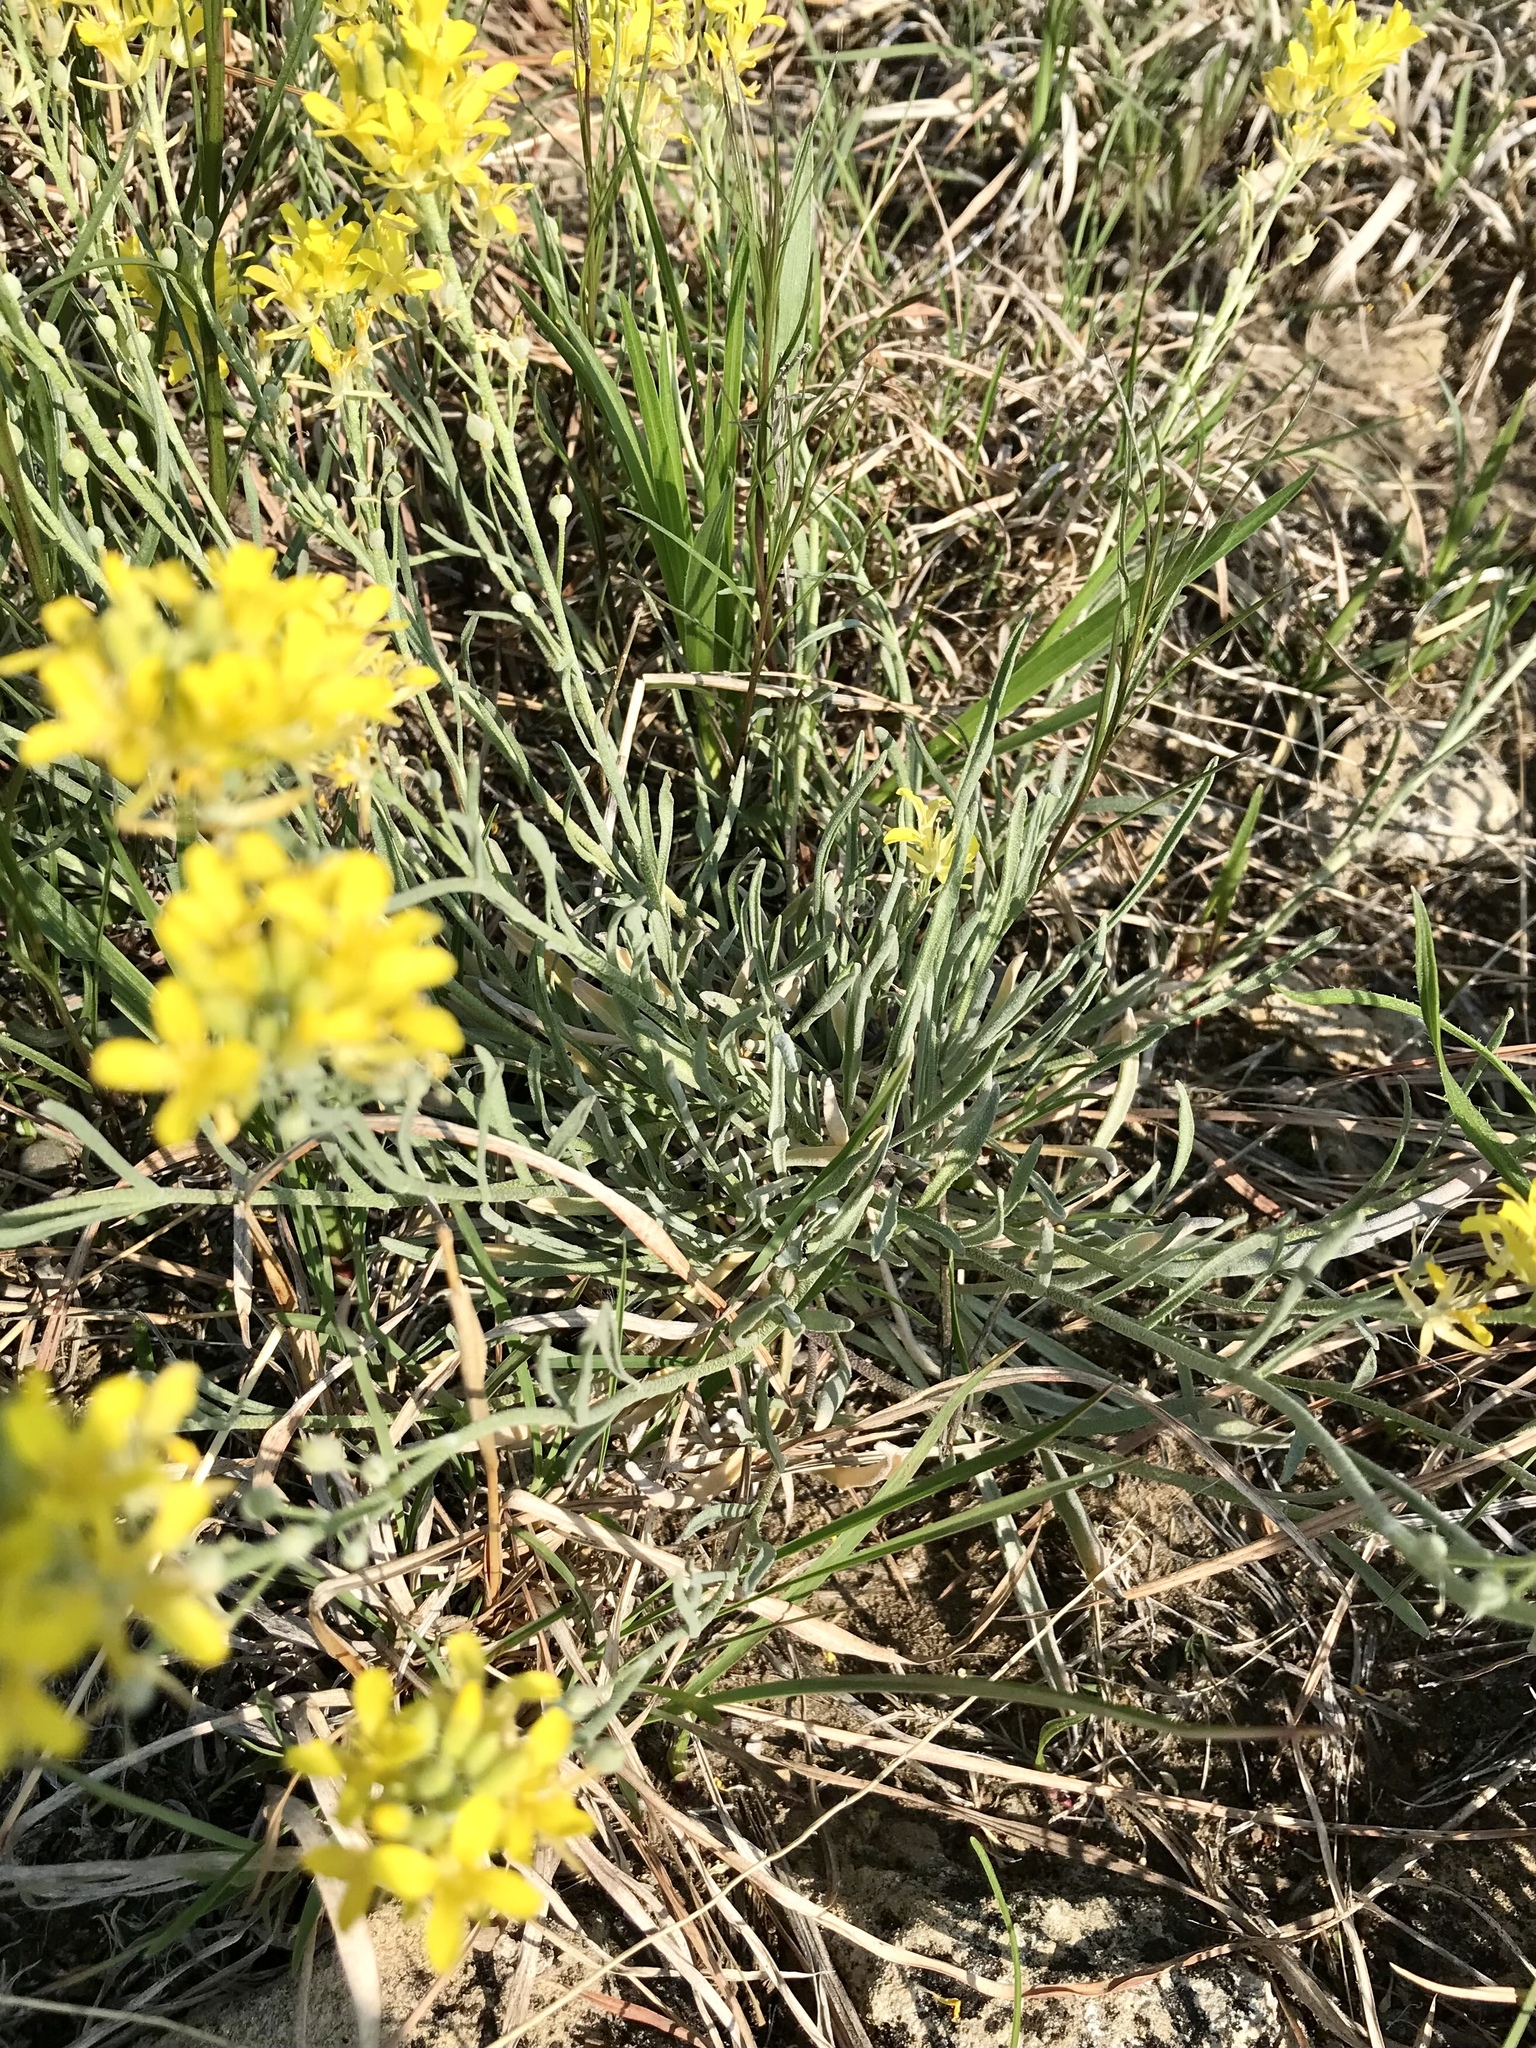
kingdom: Plantae
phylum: Tracheophyta
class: Magnoliopsida
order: Brassicales
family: Brassicaceae
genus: Physaria
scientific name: Physaria ludoviciana
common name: Foothill bladderpod
